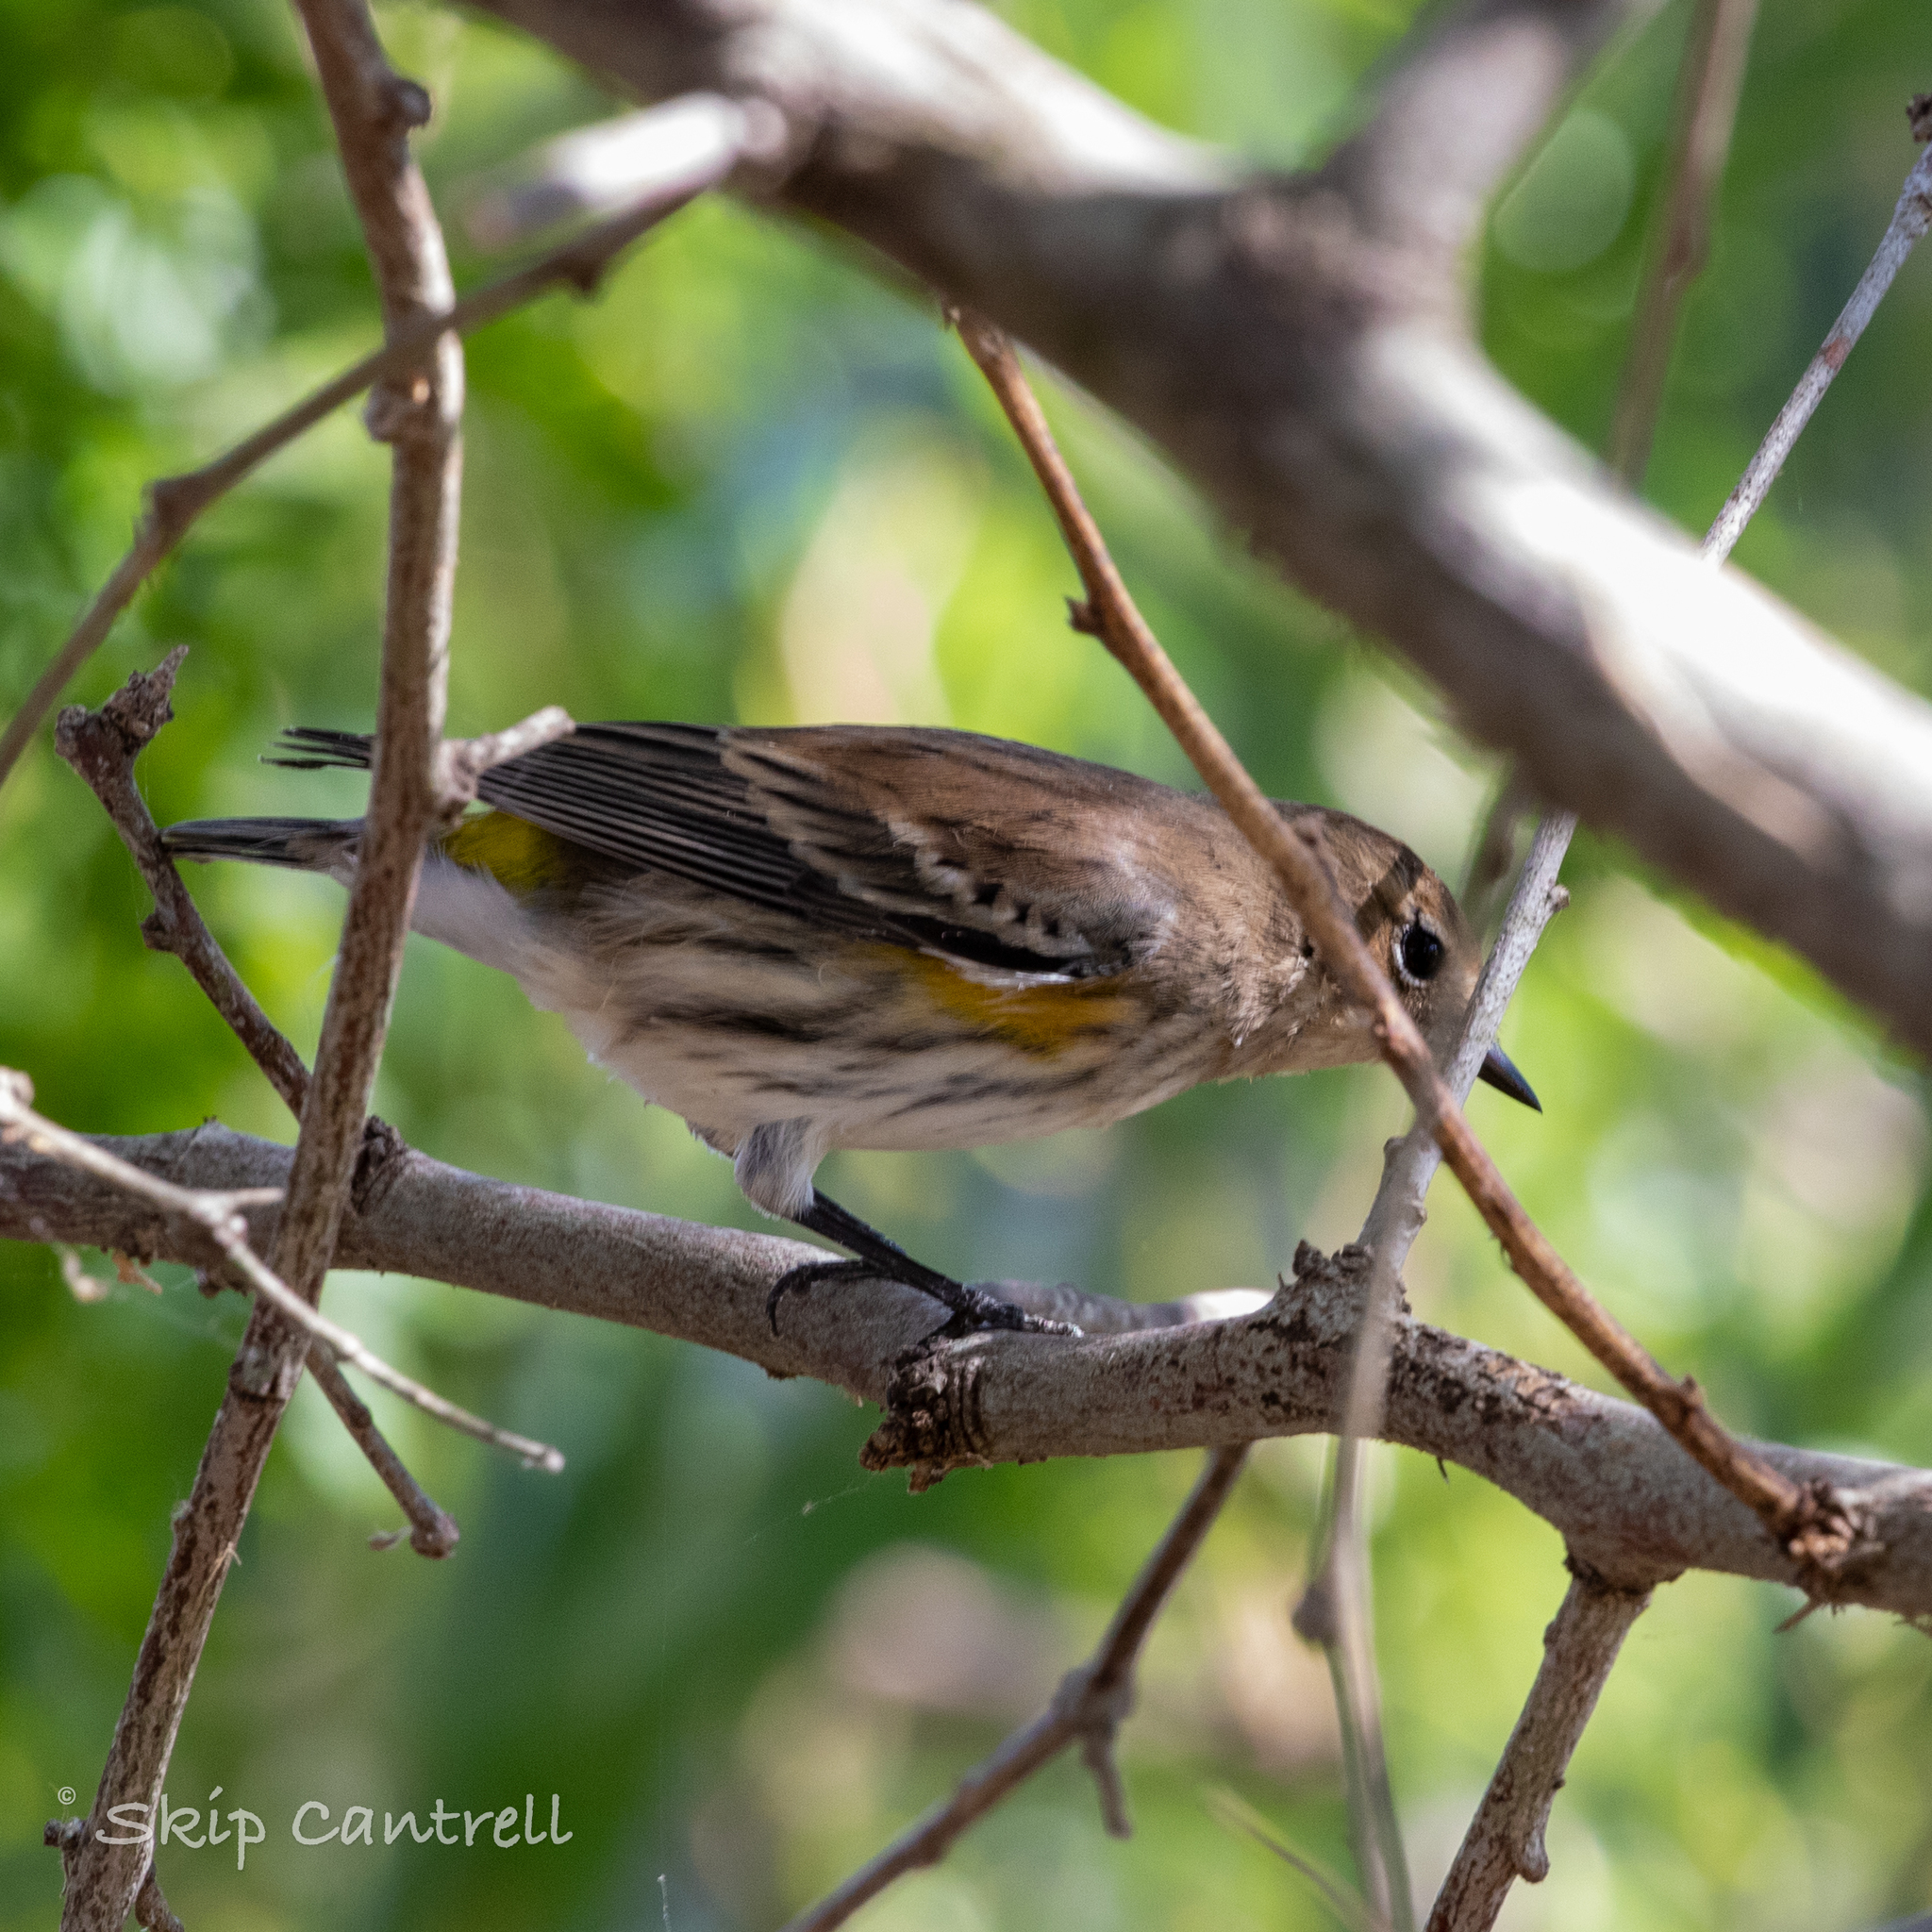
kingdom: Animalia
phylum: Chordata
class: Aves
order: Passeriformes
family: Parulidae
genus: Setophaga
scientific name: Setophaga coronata
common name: Myrtle warbler
